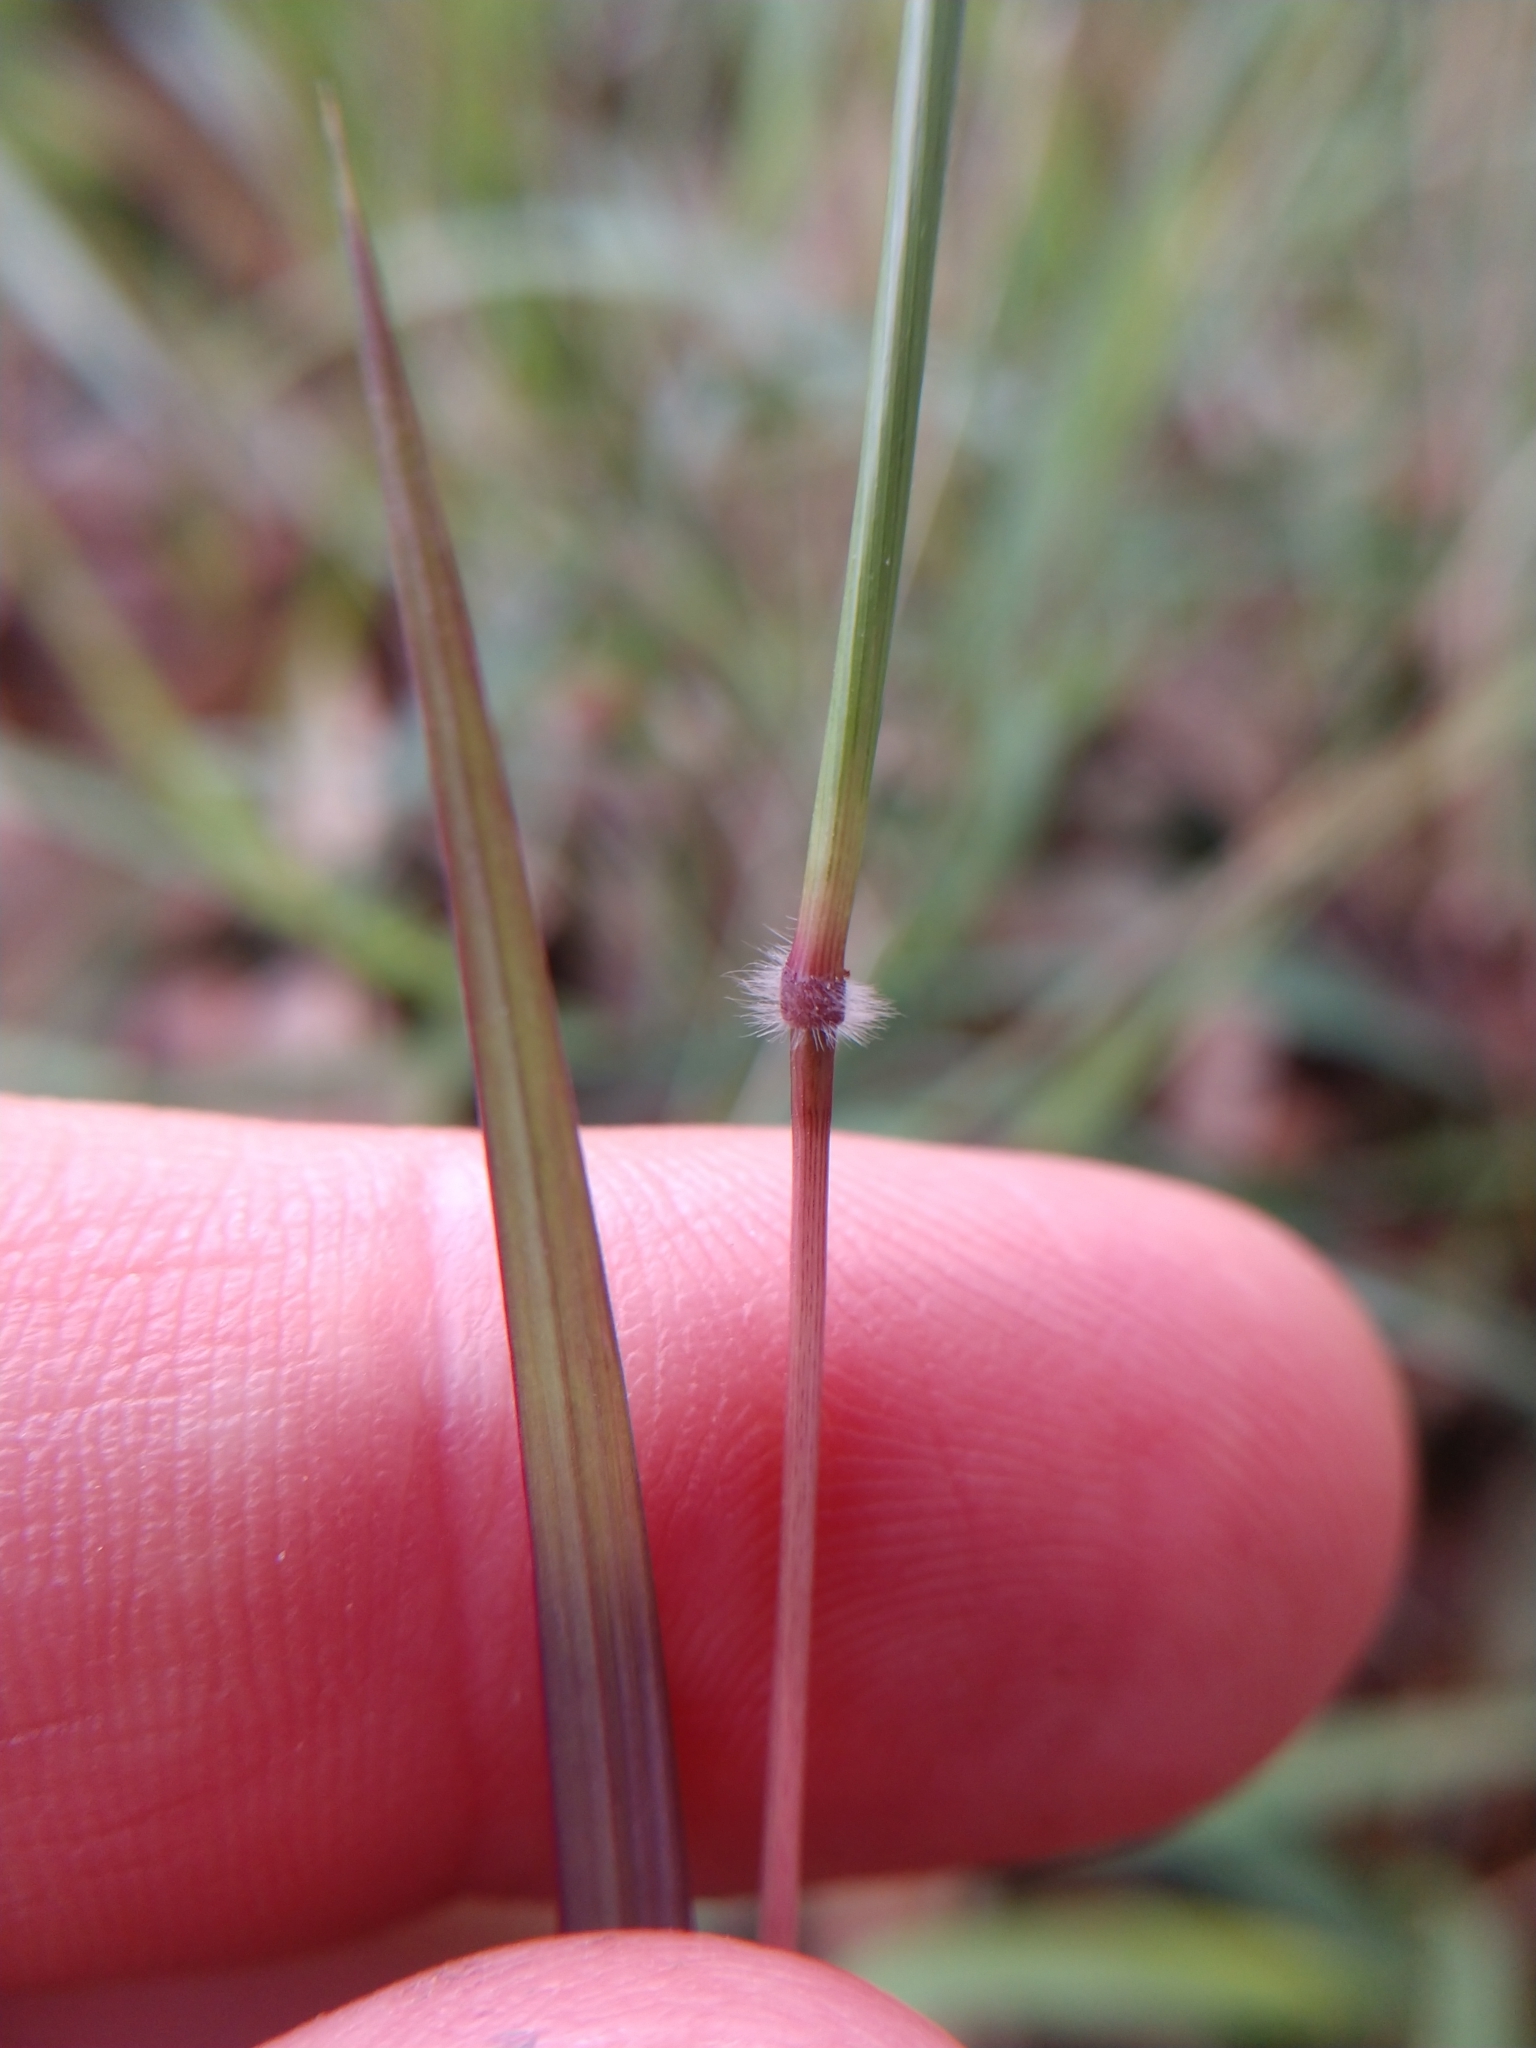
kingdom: Plantae
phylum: Tracheophyta
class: Liliopsida
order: Poales
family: Poaceae
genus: Dichanthium
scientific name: Dichanthium aristatum
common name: Angleton bluestem
